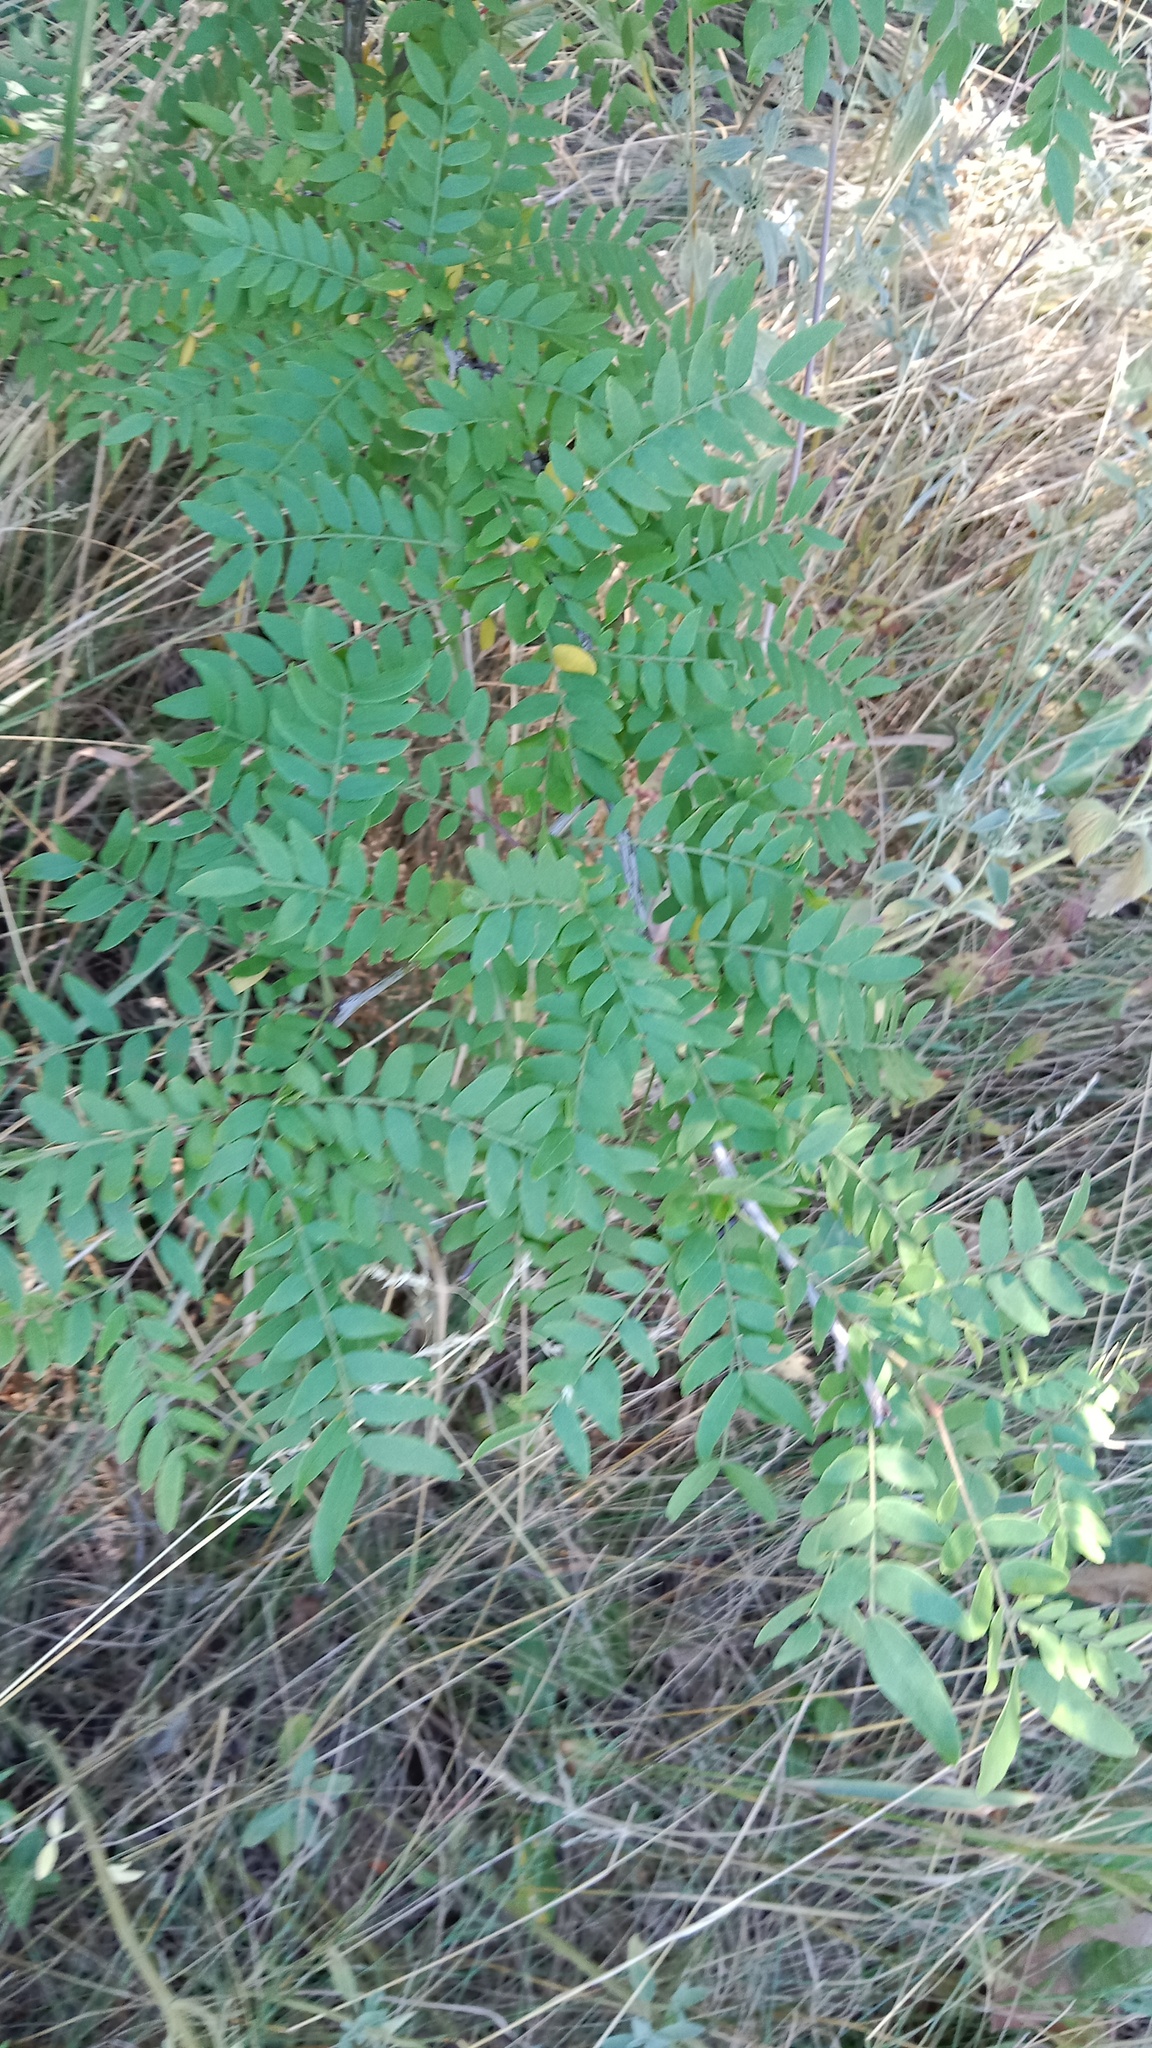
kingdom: Plantae
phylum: Tracheophyta
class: Magnoliopsida
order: Fabales
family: Fabaceae
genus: Gleditsia
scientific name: Gleditsia triacanthos
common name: Common honeylocust
